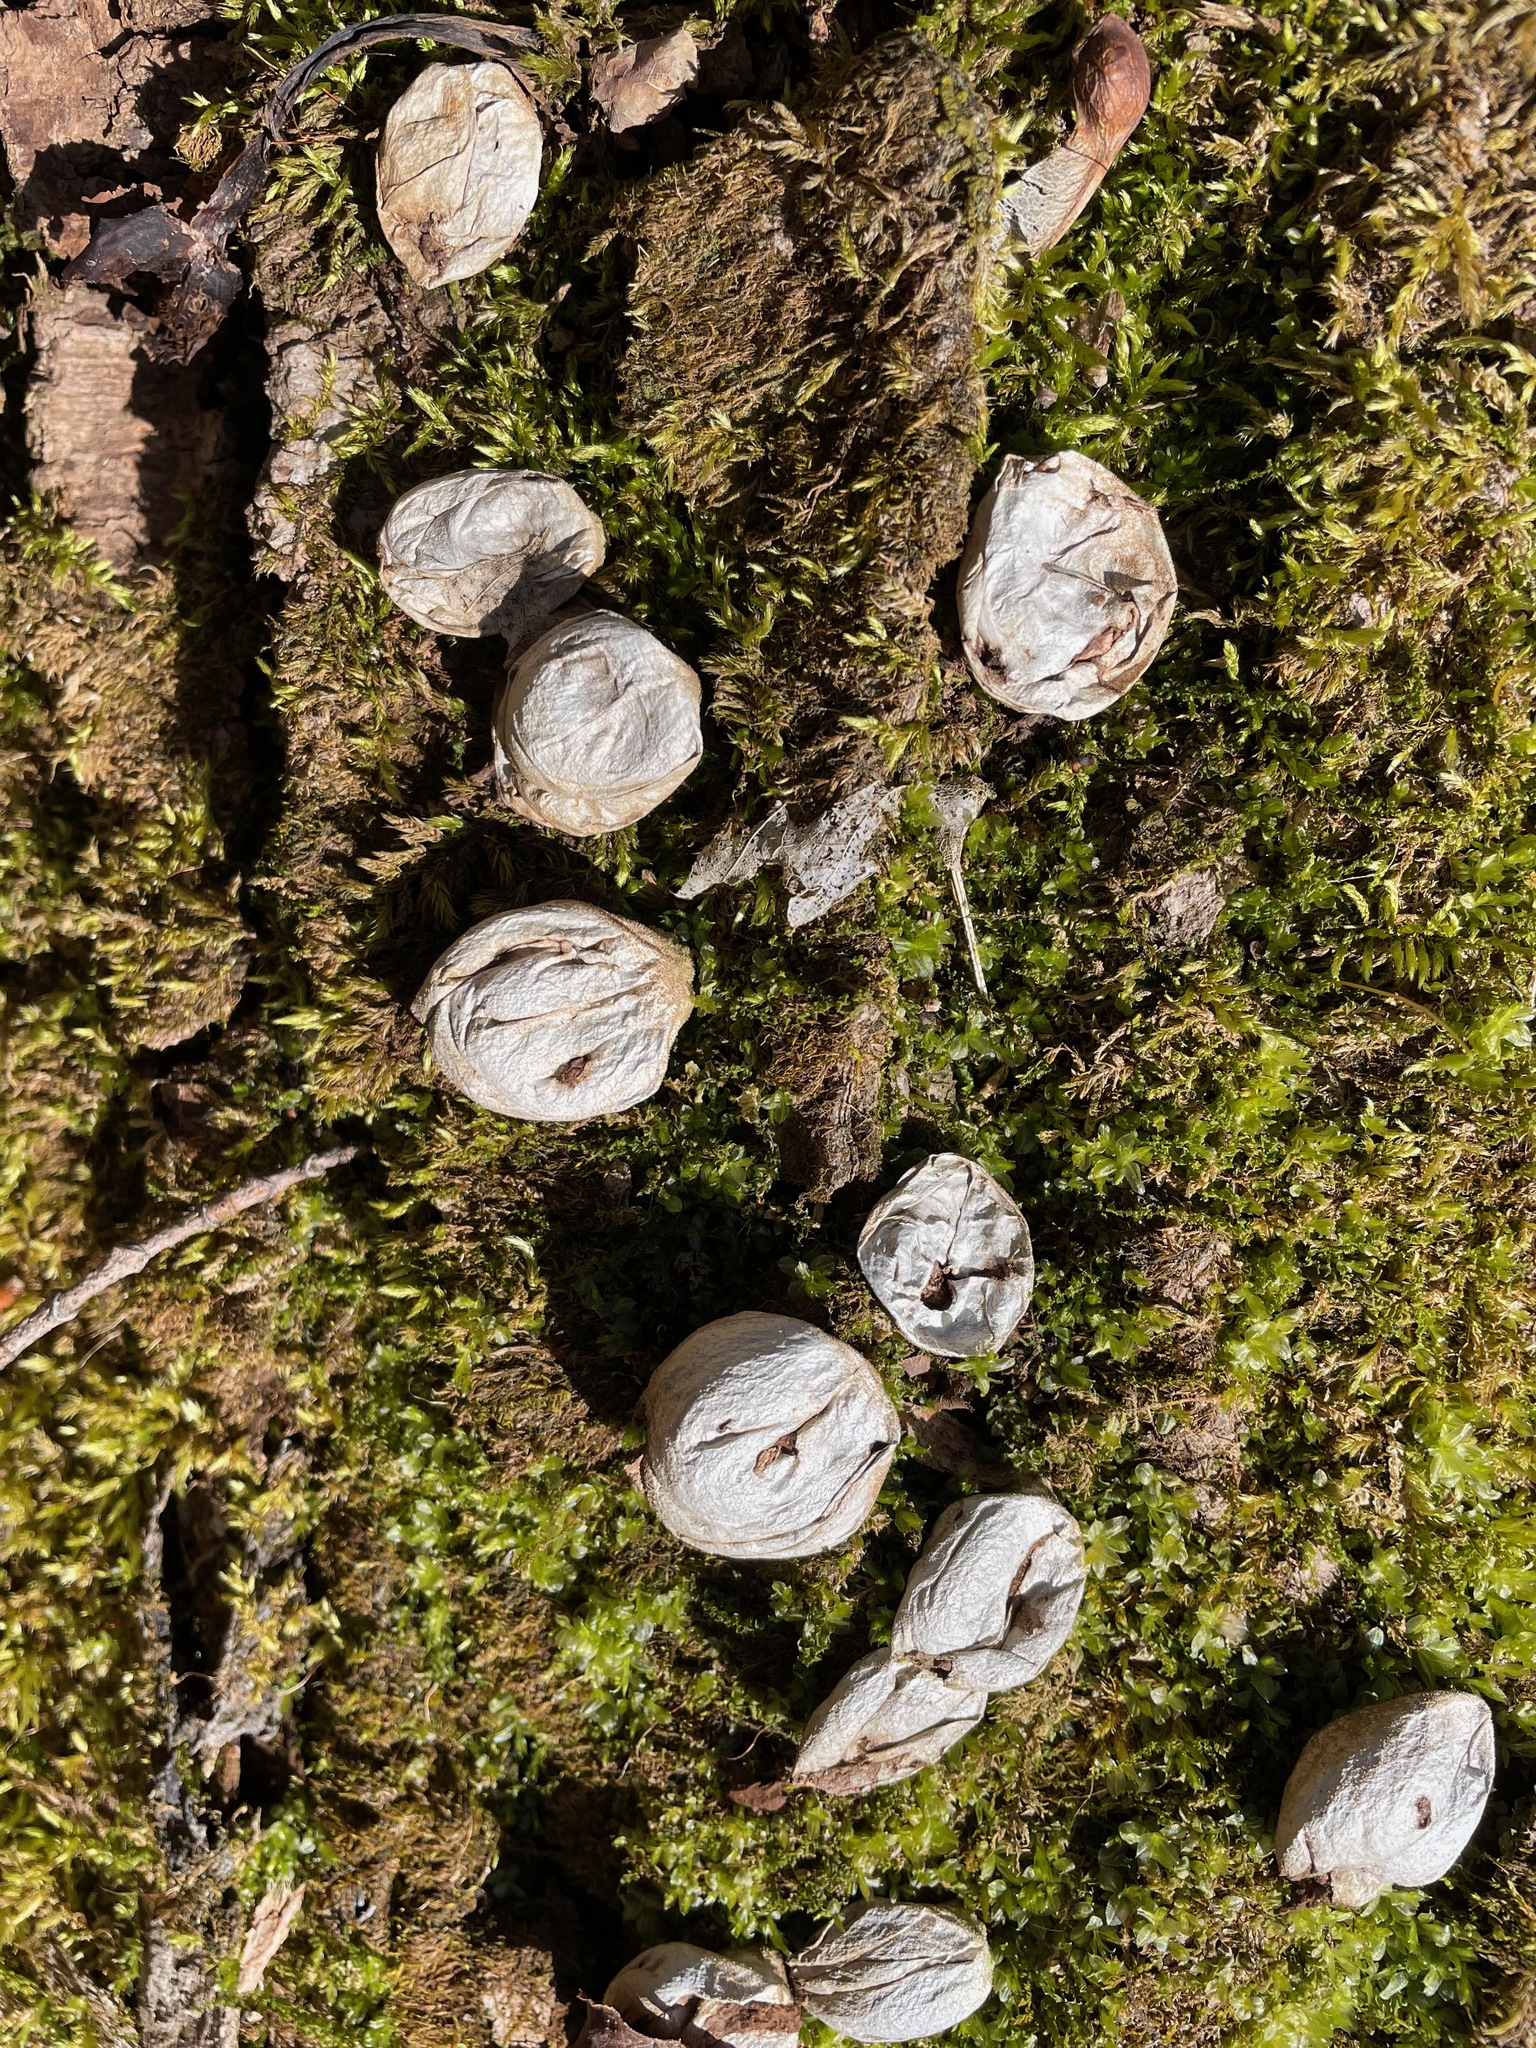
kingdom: Fungi
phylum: Basidiomycota
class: Agaricomycetes
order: Agaricales
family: Lycoperdaceae
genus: Apioperdon
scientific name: Apioperdon pyriforme
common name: Pear-shaped puffball
